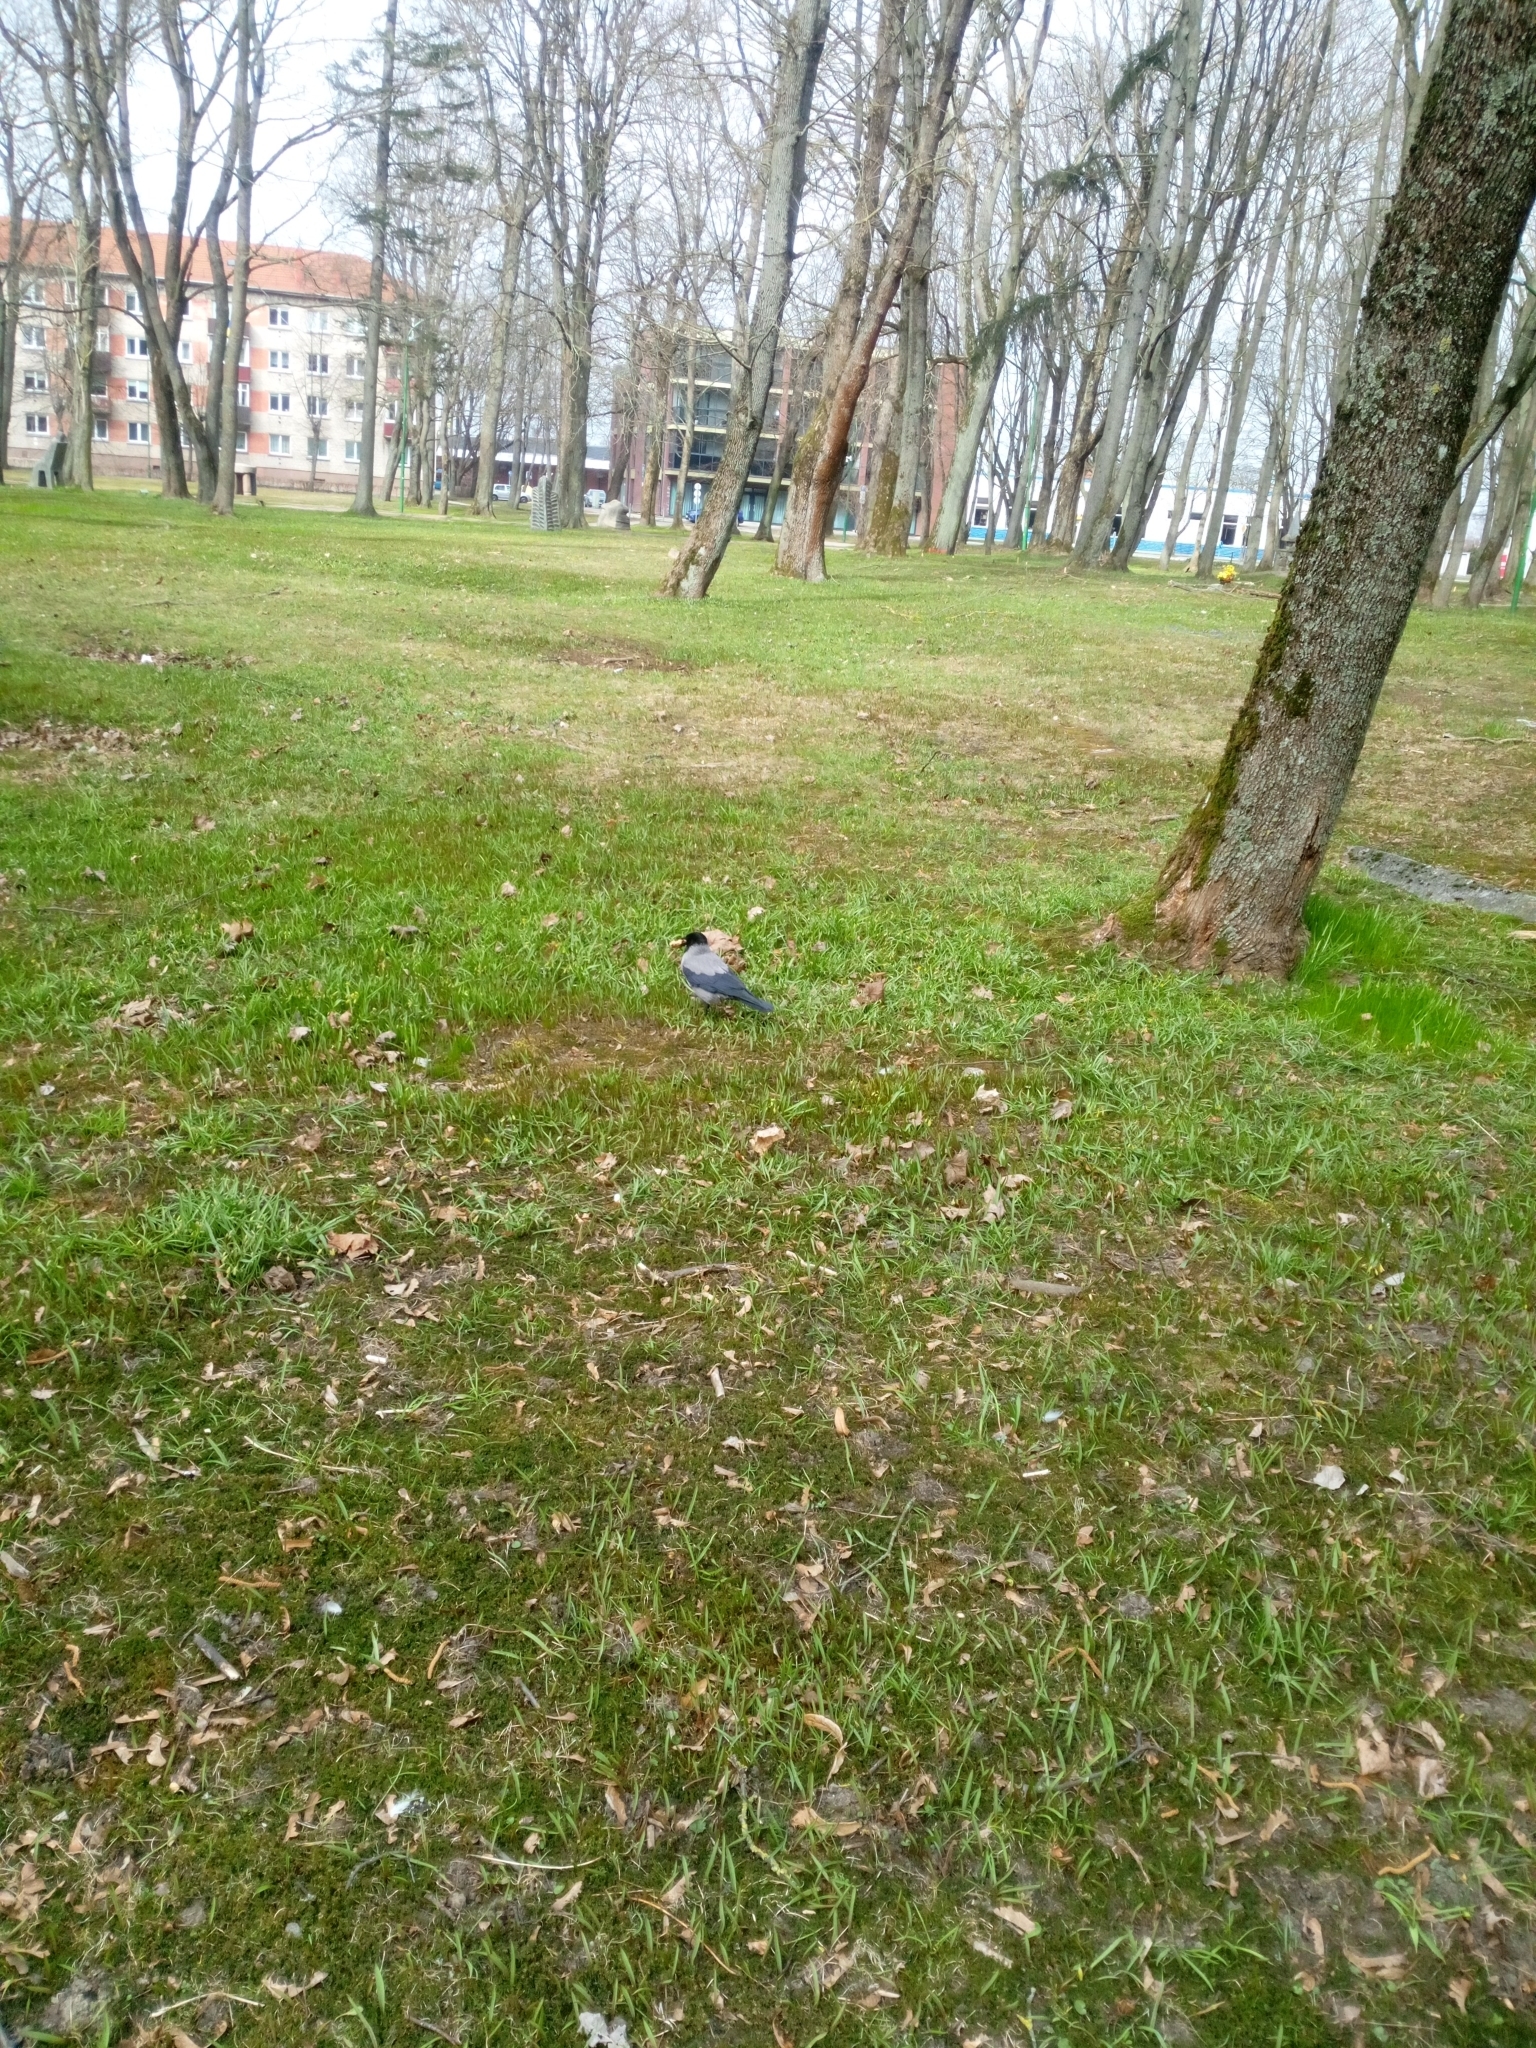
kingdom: Animalia
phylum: Chordata
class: Aves
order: Passeriformes
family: Corvidae
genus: Corvus
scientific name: Corvus cornix
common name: Hooded crow
